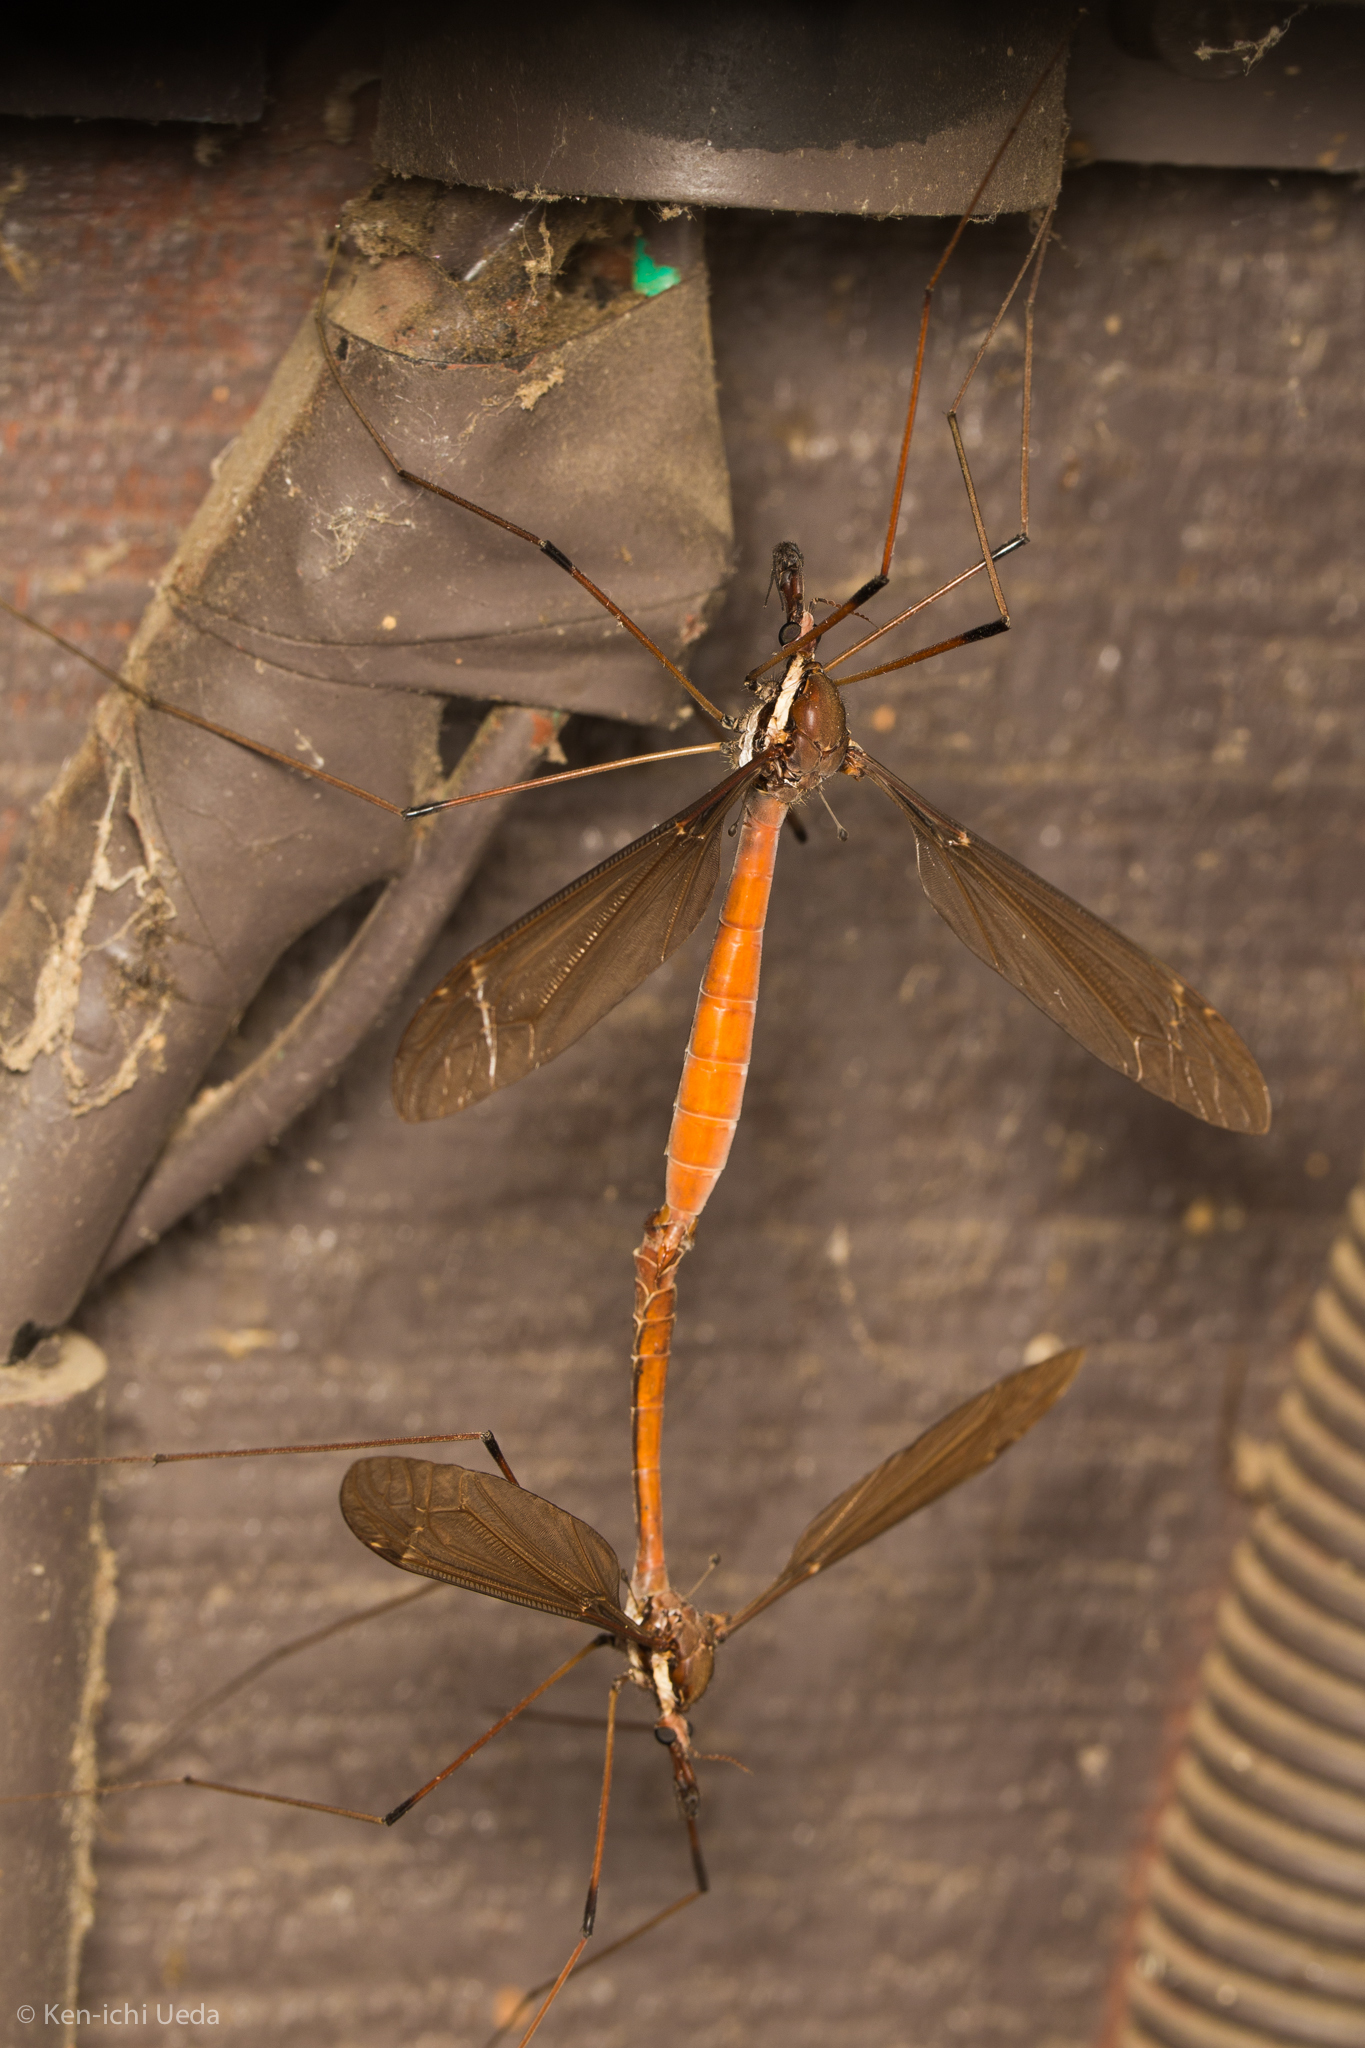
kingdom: Animalia
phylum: Arthropoda
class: Insecta
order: Diptera
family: Tipulidae
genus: Holorusia
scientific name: Holorusia hespera
